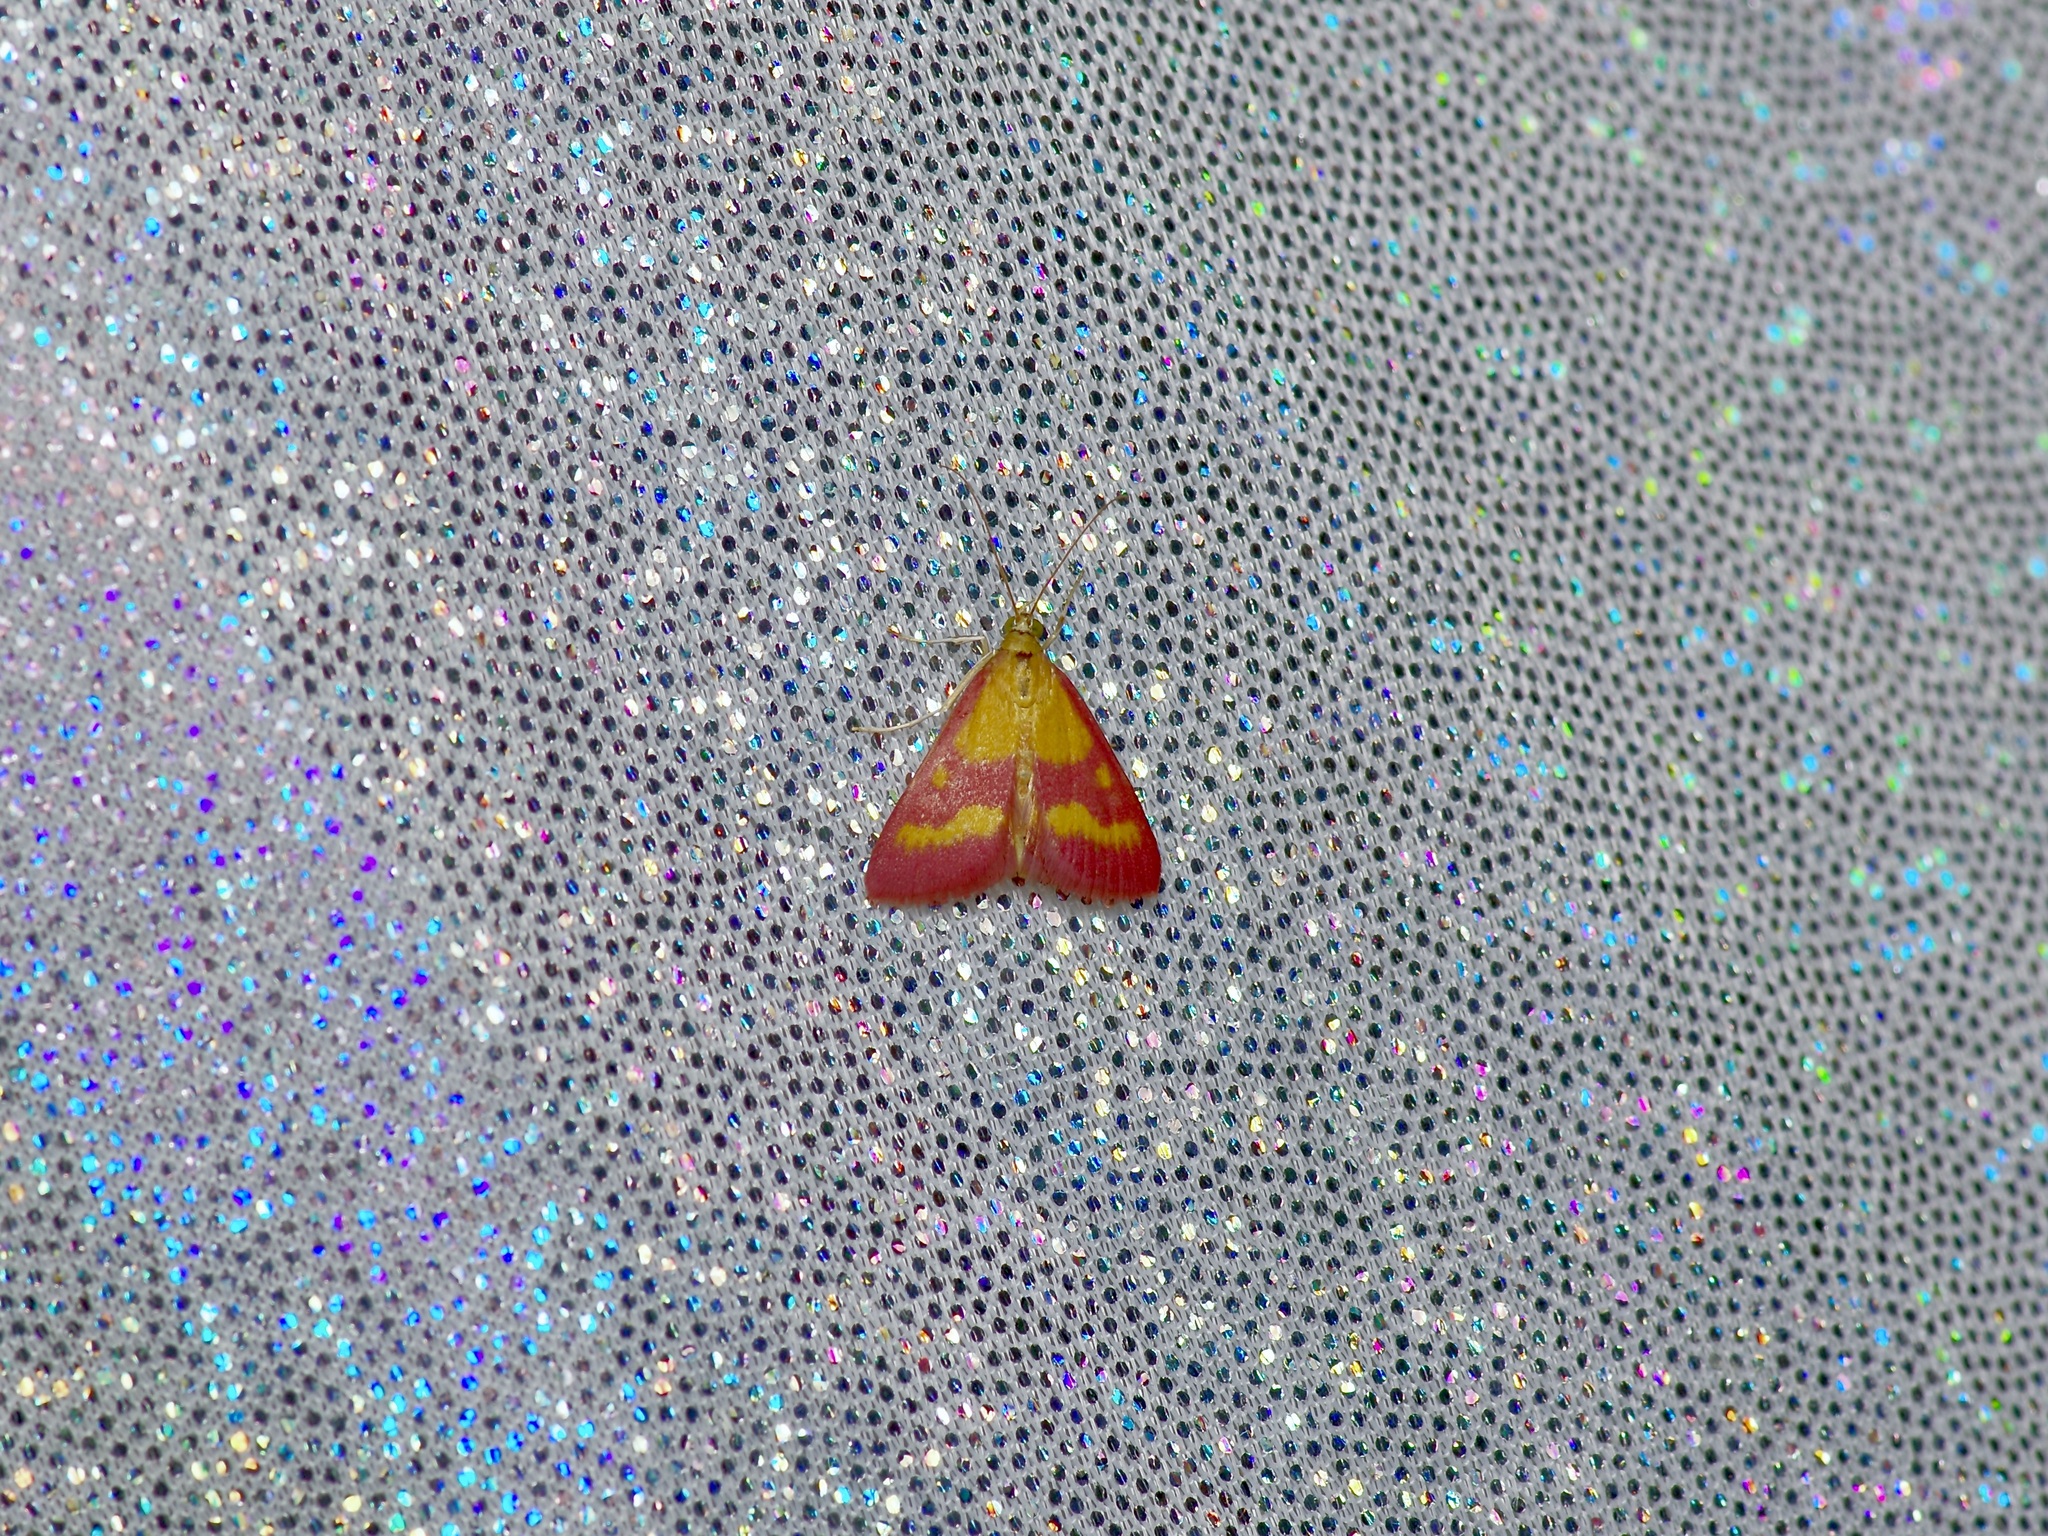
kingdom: Animalia
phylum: Arthropoda
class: Insecta
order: Lepidoptera
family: Crambidae
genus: Pyrausta
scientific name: Pyrausta laticlavia
